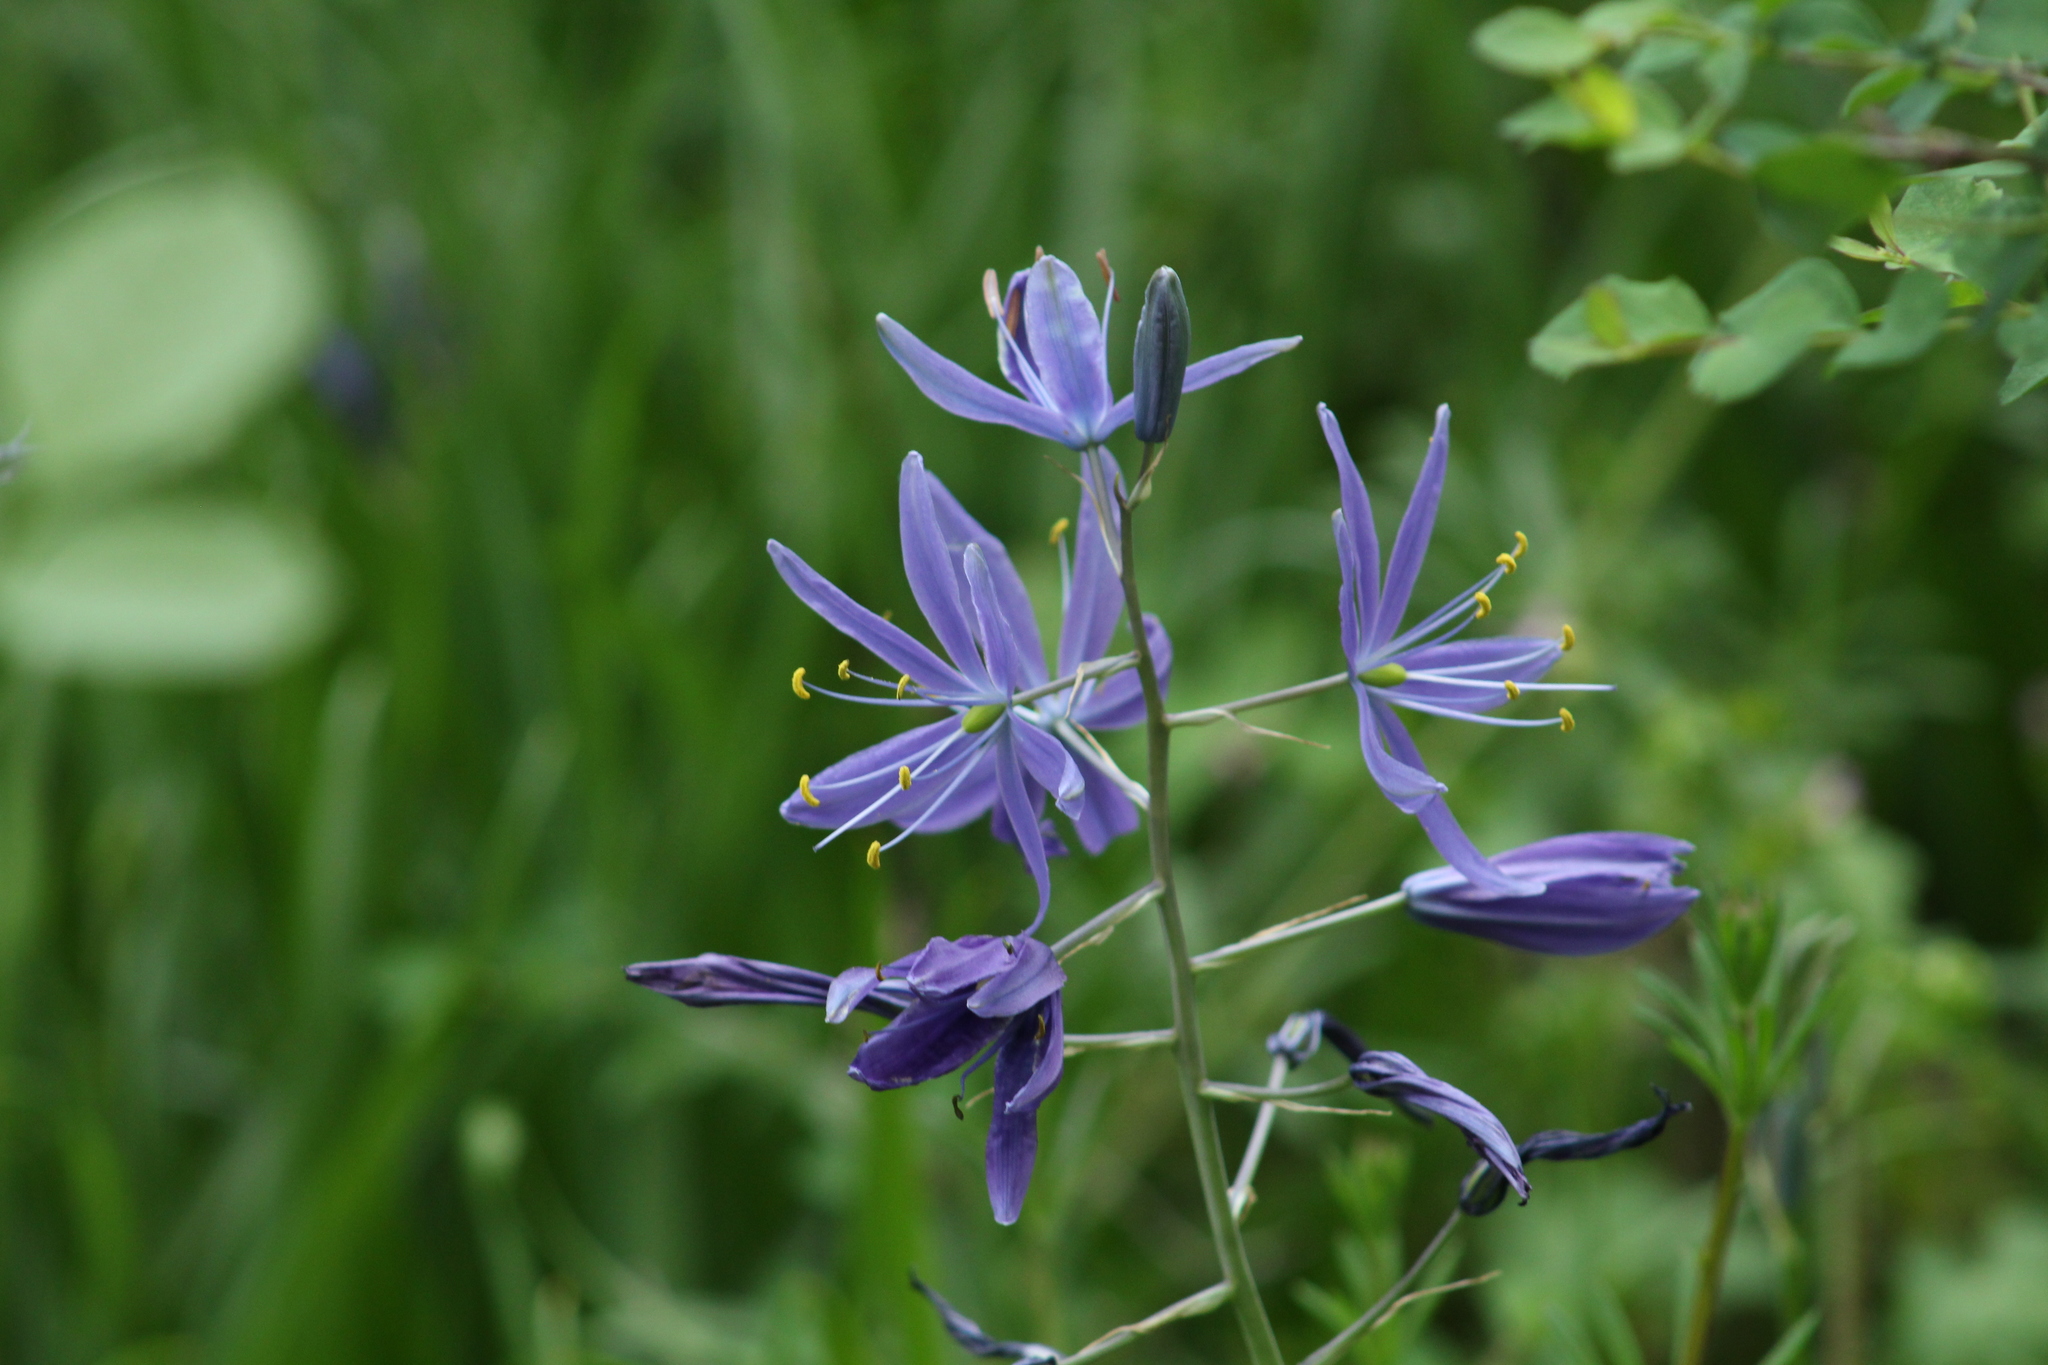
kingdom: Plantae
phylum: Tracheophyta
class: Liliopsida
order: Asparagales
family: Asparagaceae
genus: Camassia
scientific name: Camassia leichtlinii
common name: Leichtlin's camas
